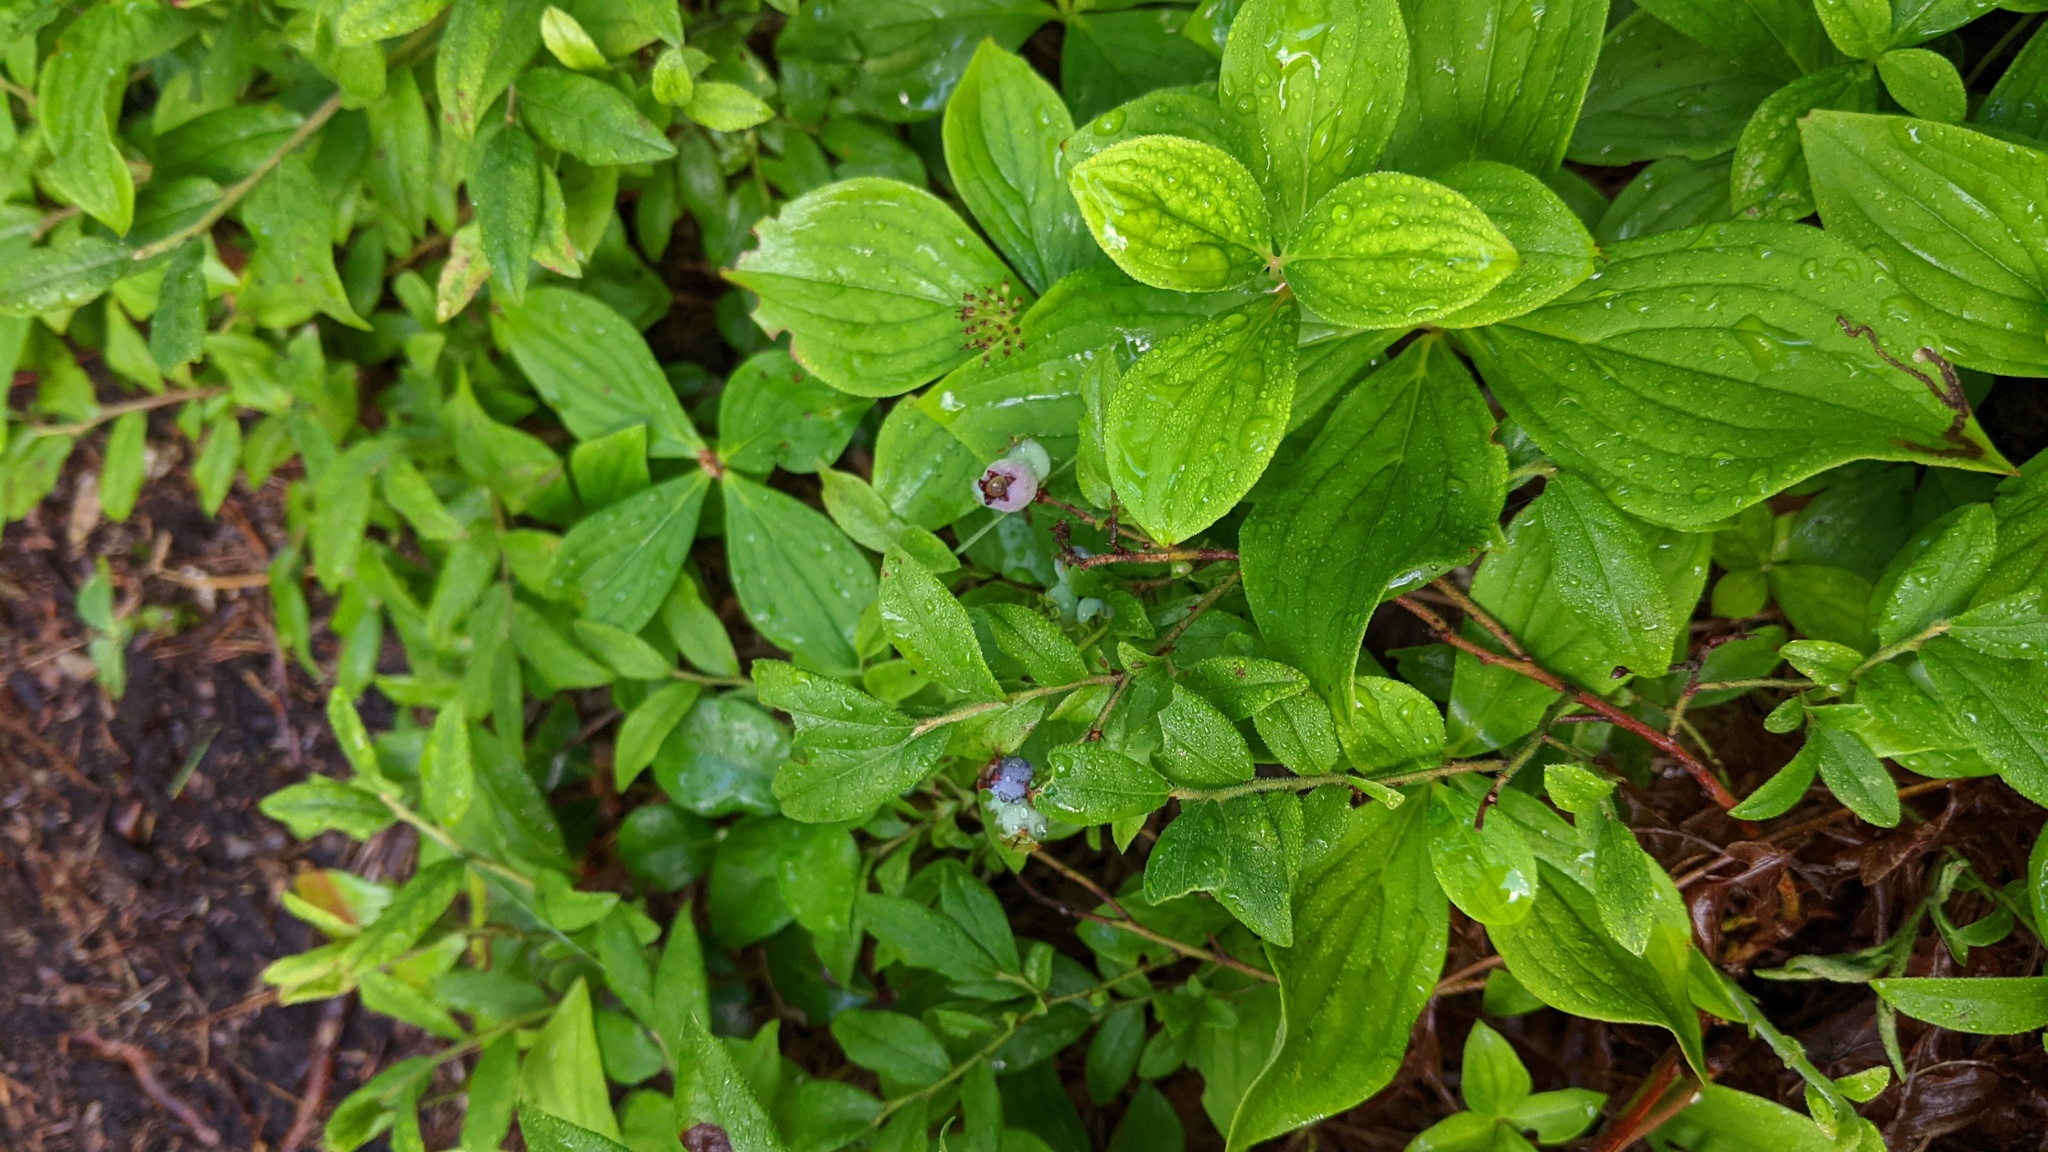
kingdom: Plantae
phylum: Tracheophyta
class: Magnoliopsida
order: Ericales
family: Ericaceae
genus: Vaccinium
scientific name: Vaccinium myrtilloides
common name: Canada blueberry
